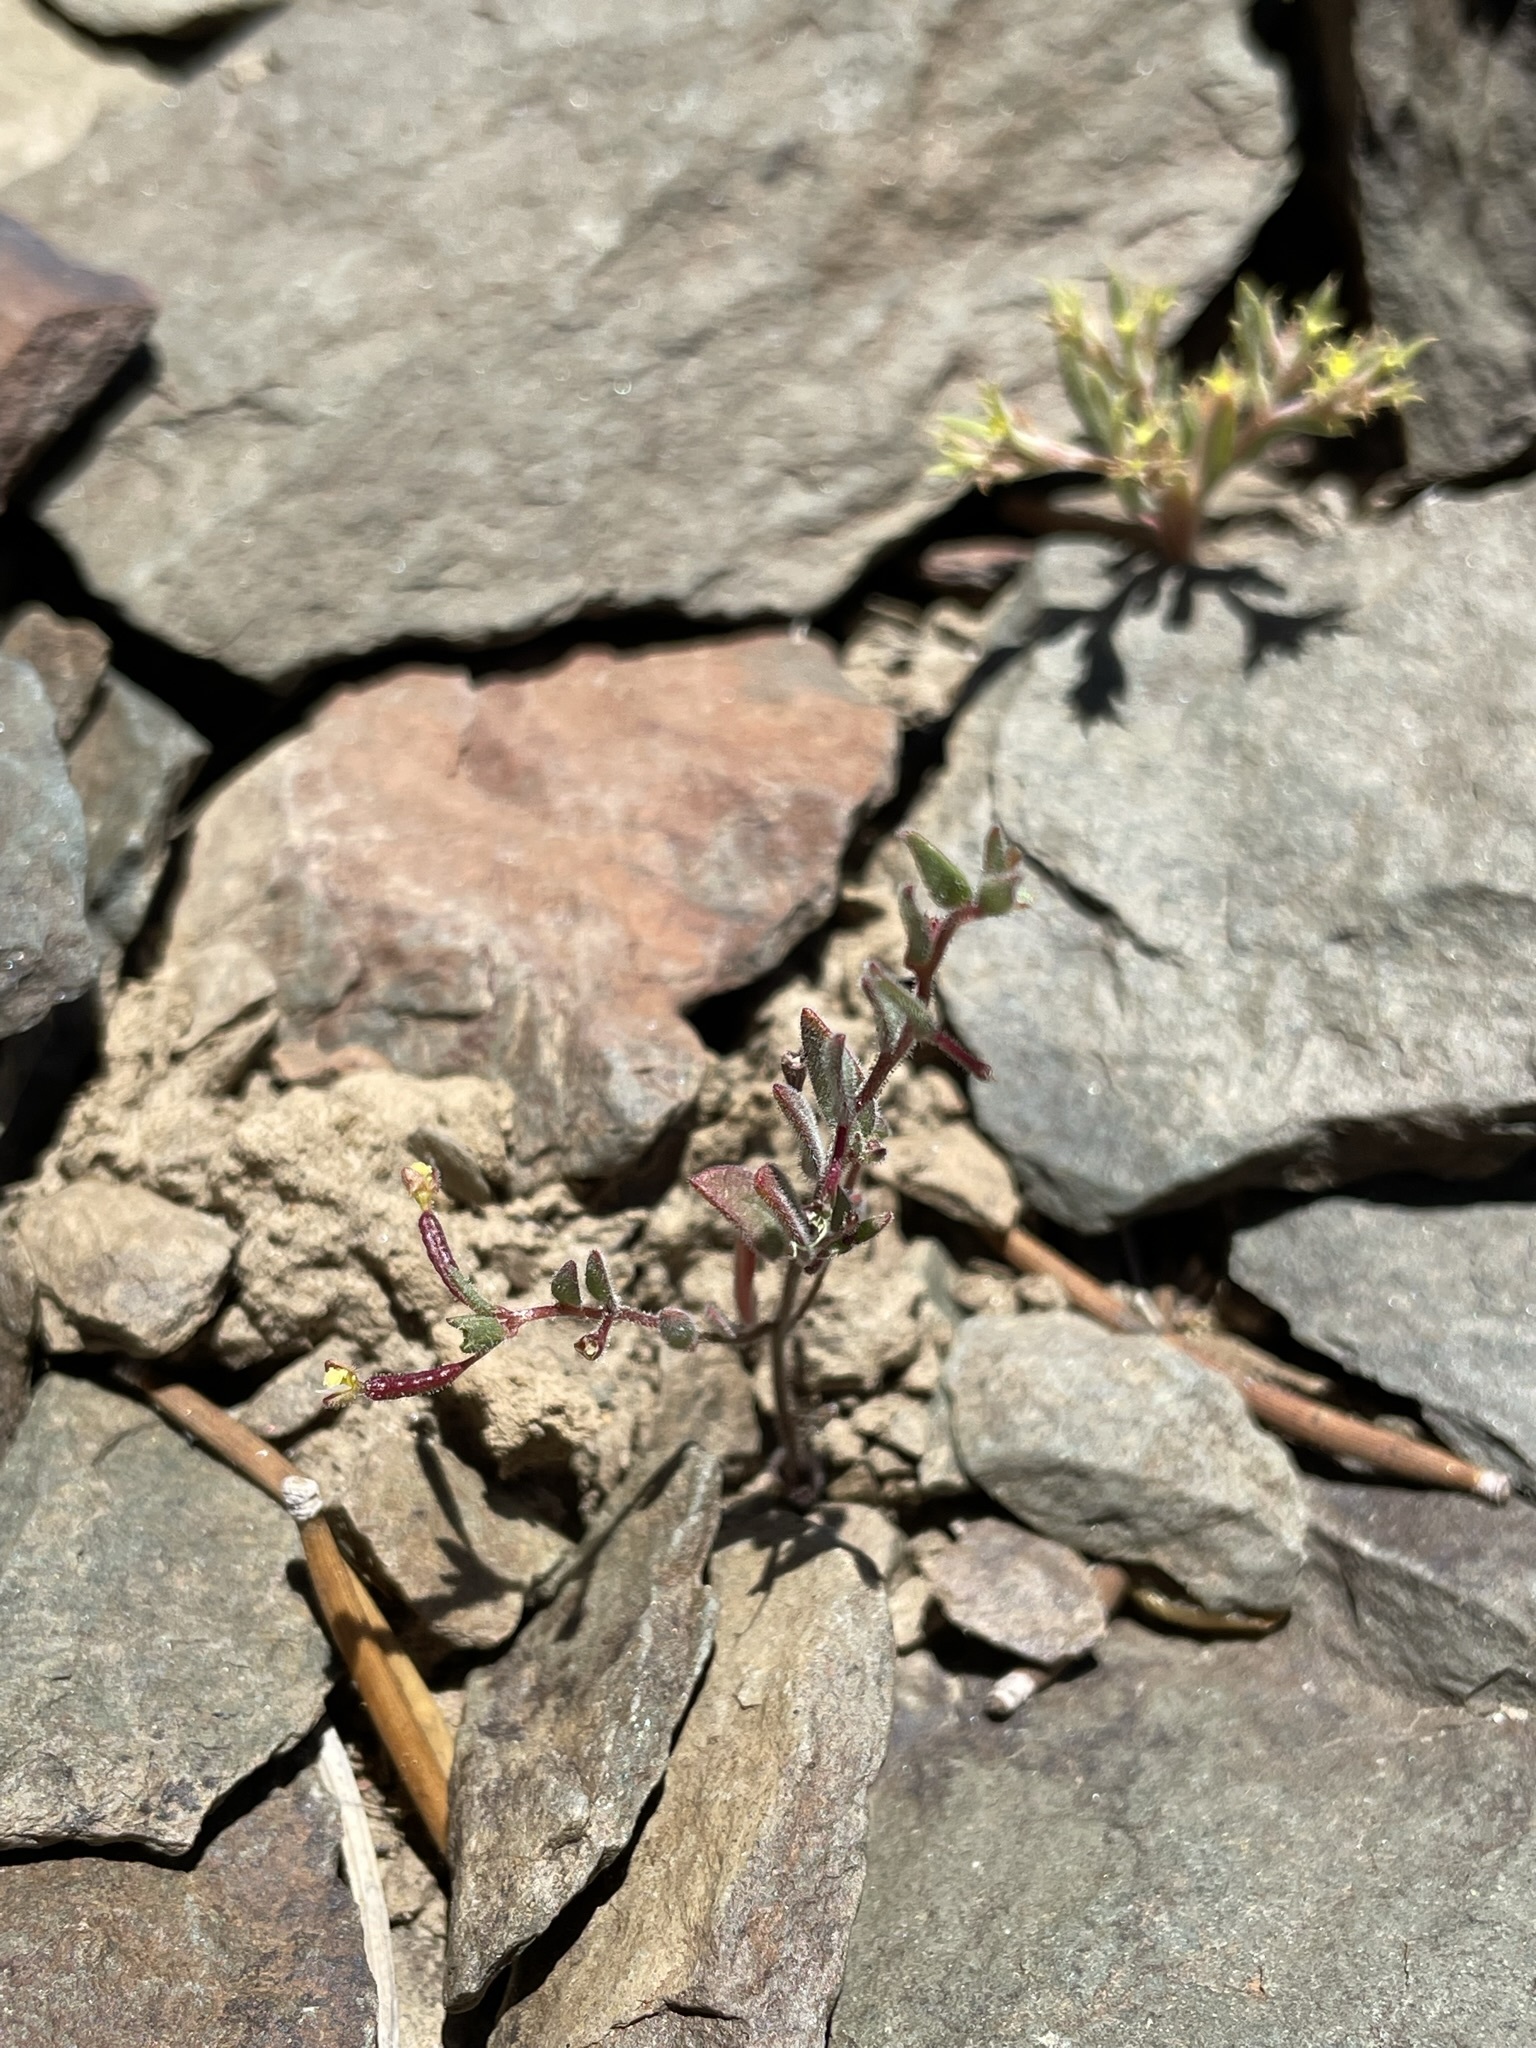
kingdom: Plantae
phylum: Tracheophyta
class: Magnoliopsida
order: Myrtales
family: Onagraceae
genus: Chylismiella
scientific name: Chylismiella pterosperma
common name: Wingfruit suncup
